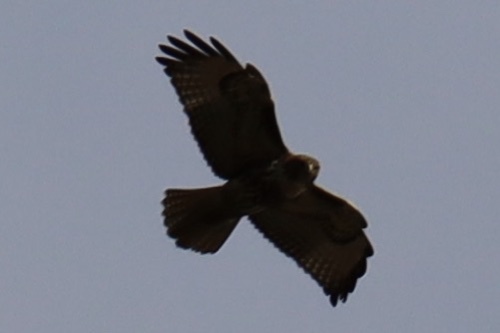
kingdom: Animalia
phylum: Chordata
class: Aves
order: Accipitriformes
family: Accipitridae
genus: Buteo
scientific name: Buteo jamaicensis
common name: Red-tailed hawk
